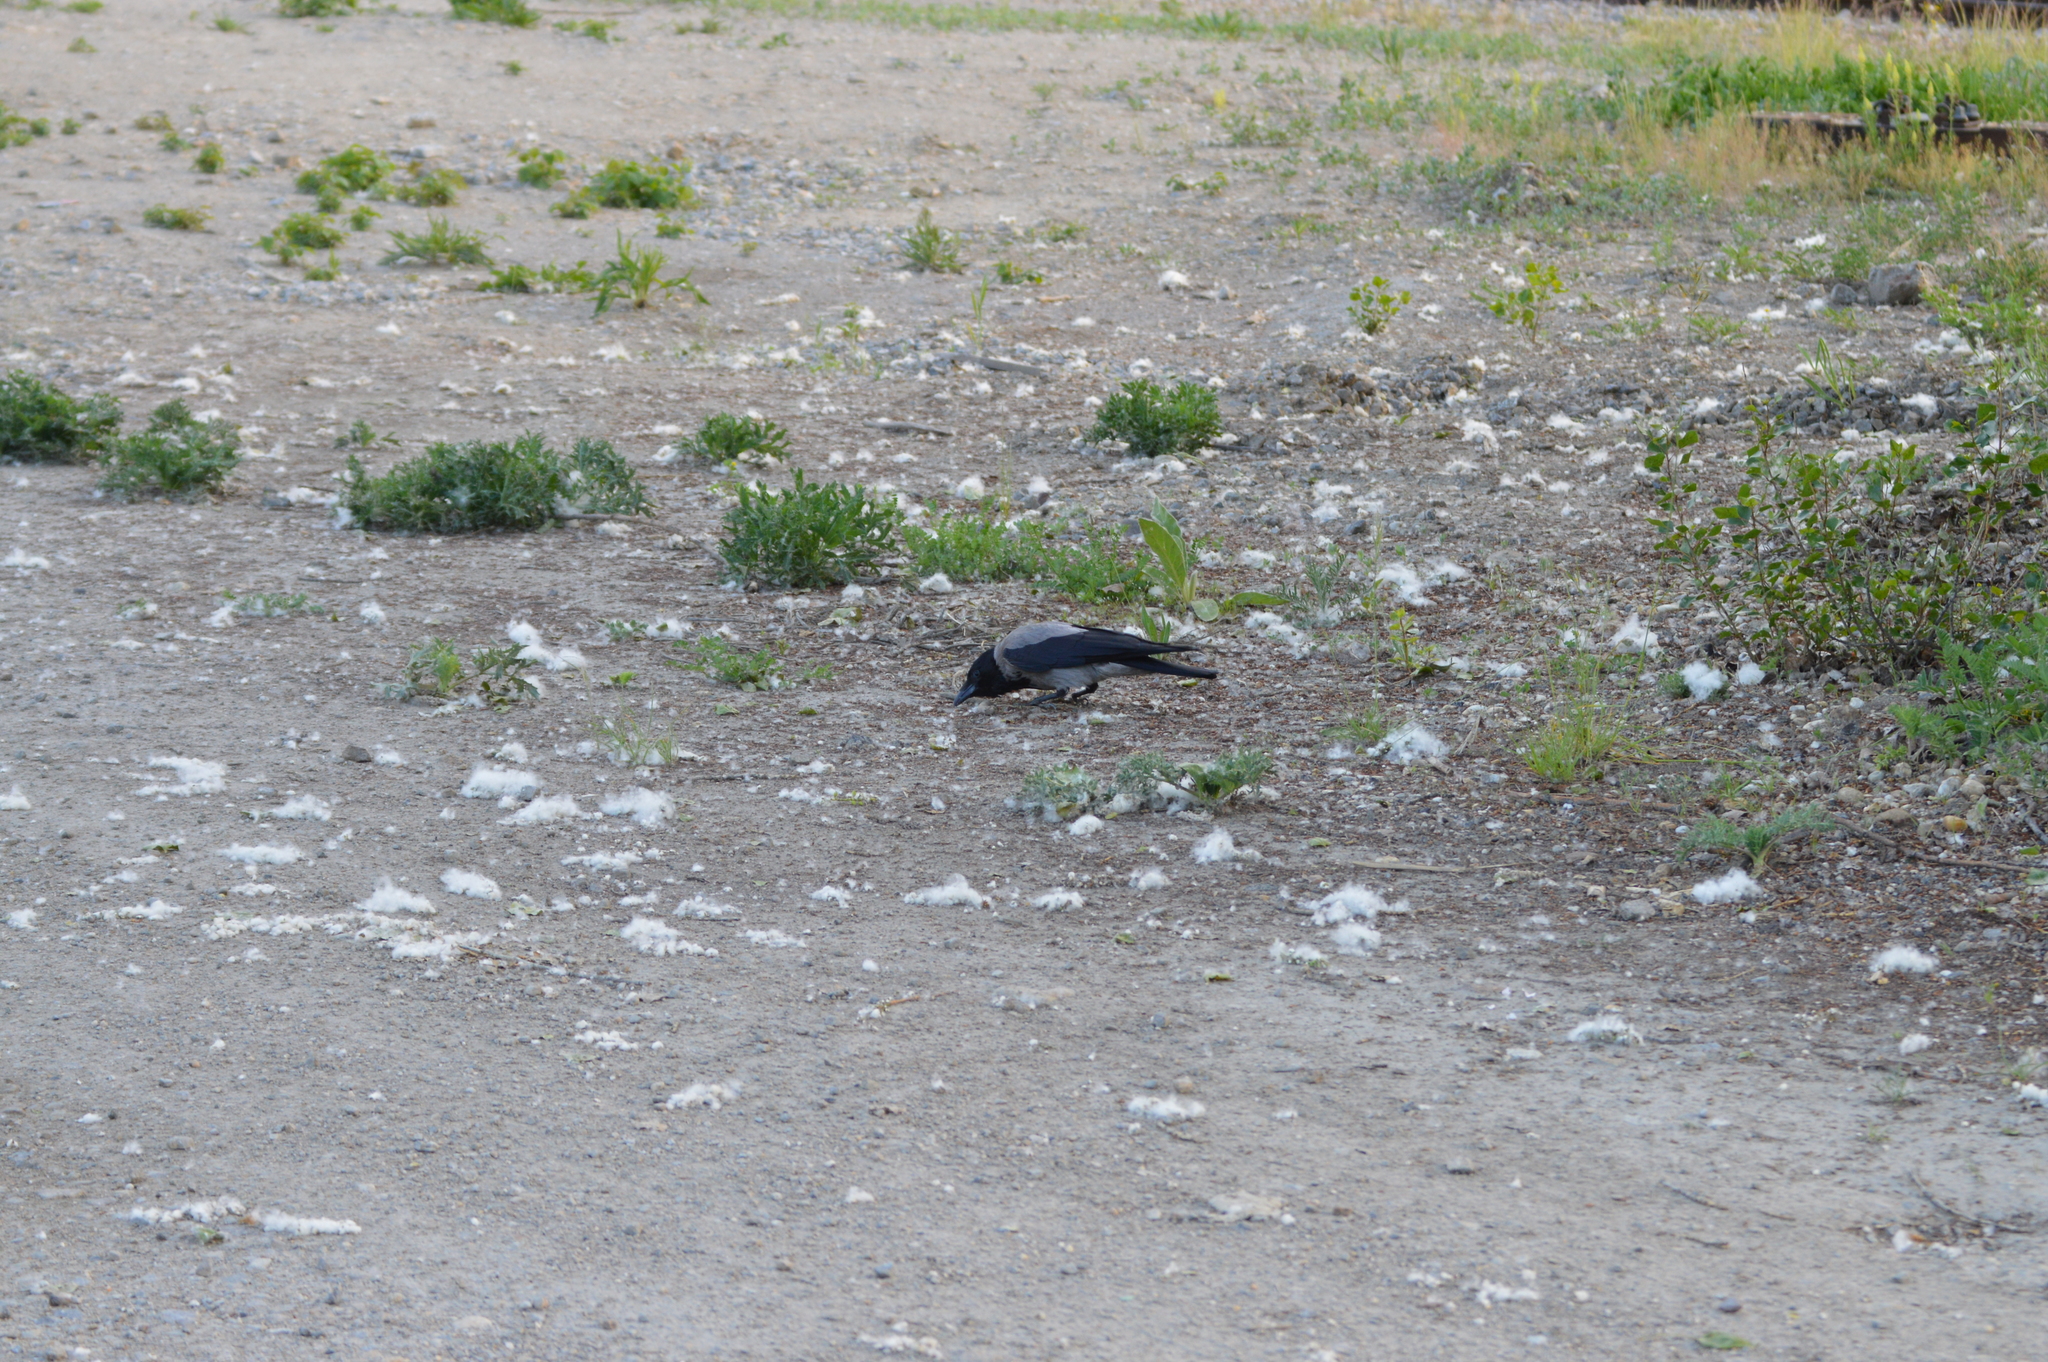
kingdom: Animalia
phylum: Chordata
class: Aves
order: Passeriformes
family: Corvidae
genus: Corvus
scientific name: Corvus cornix
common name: Hooded crow
